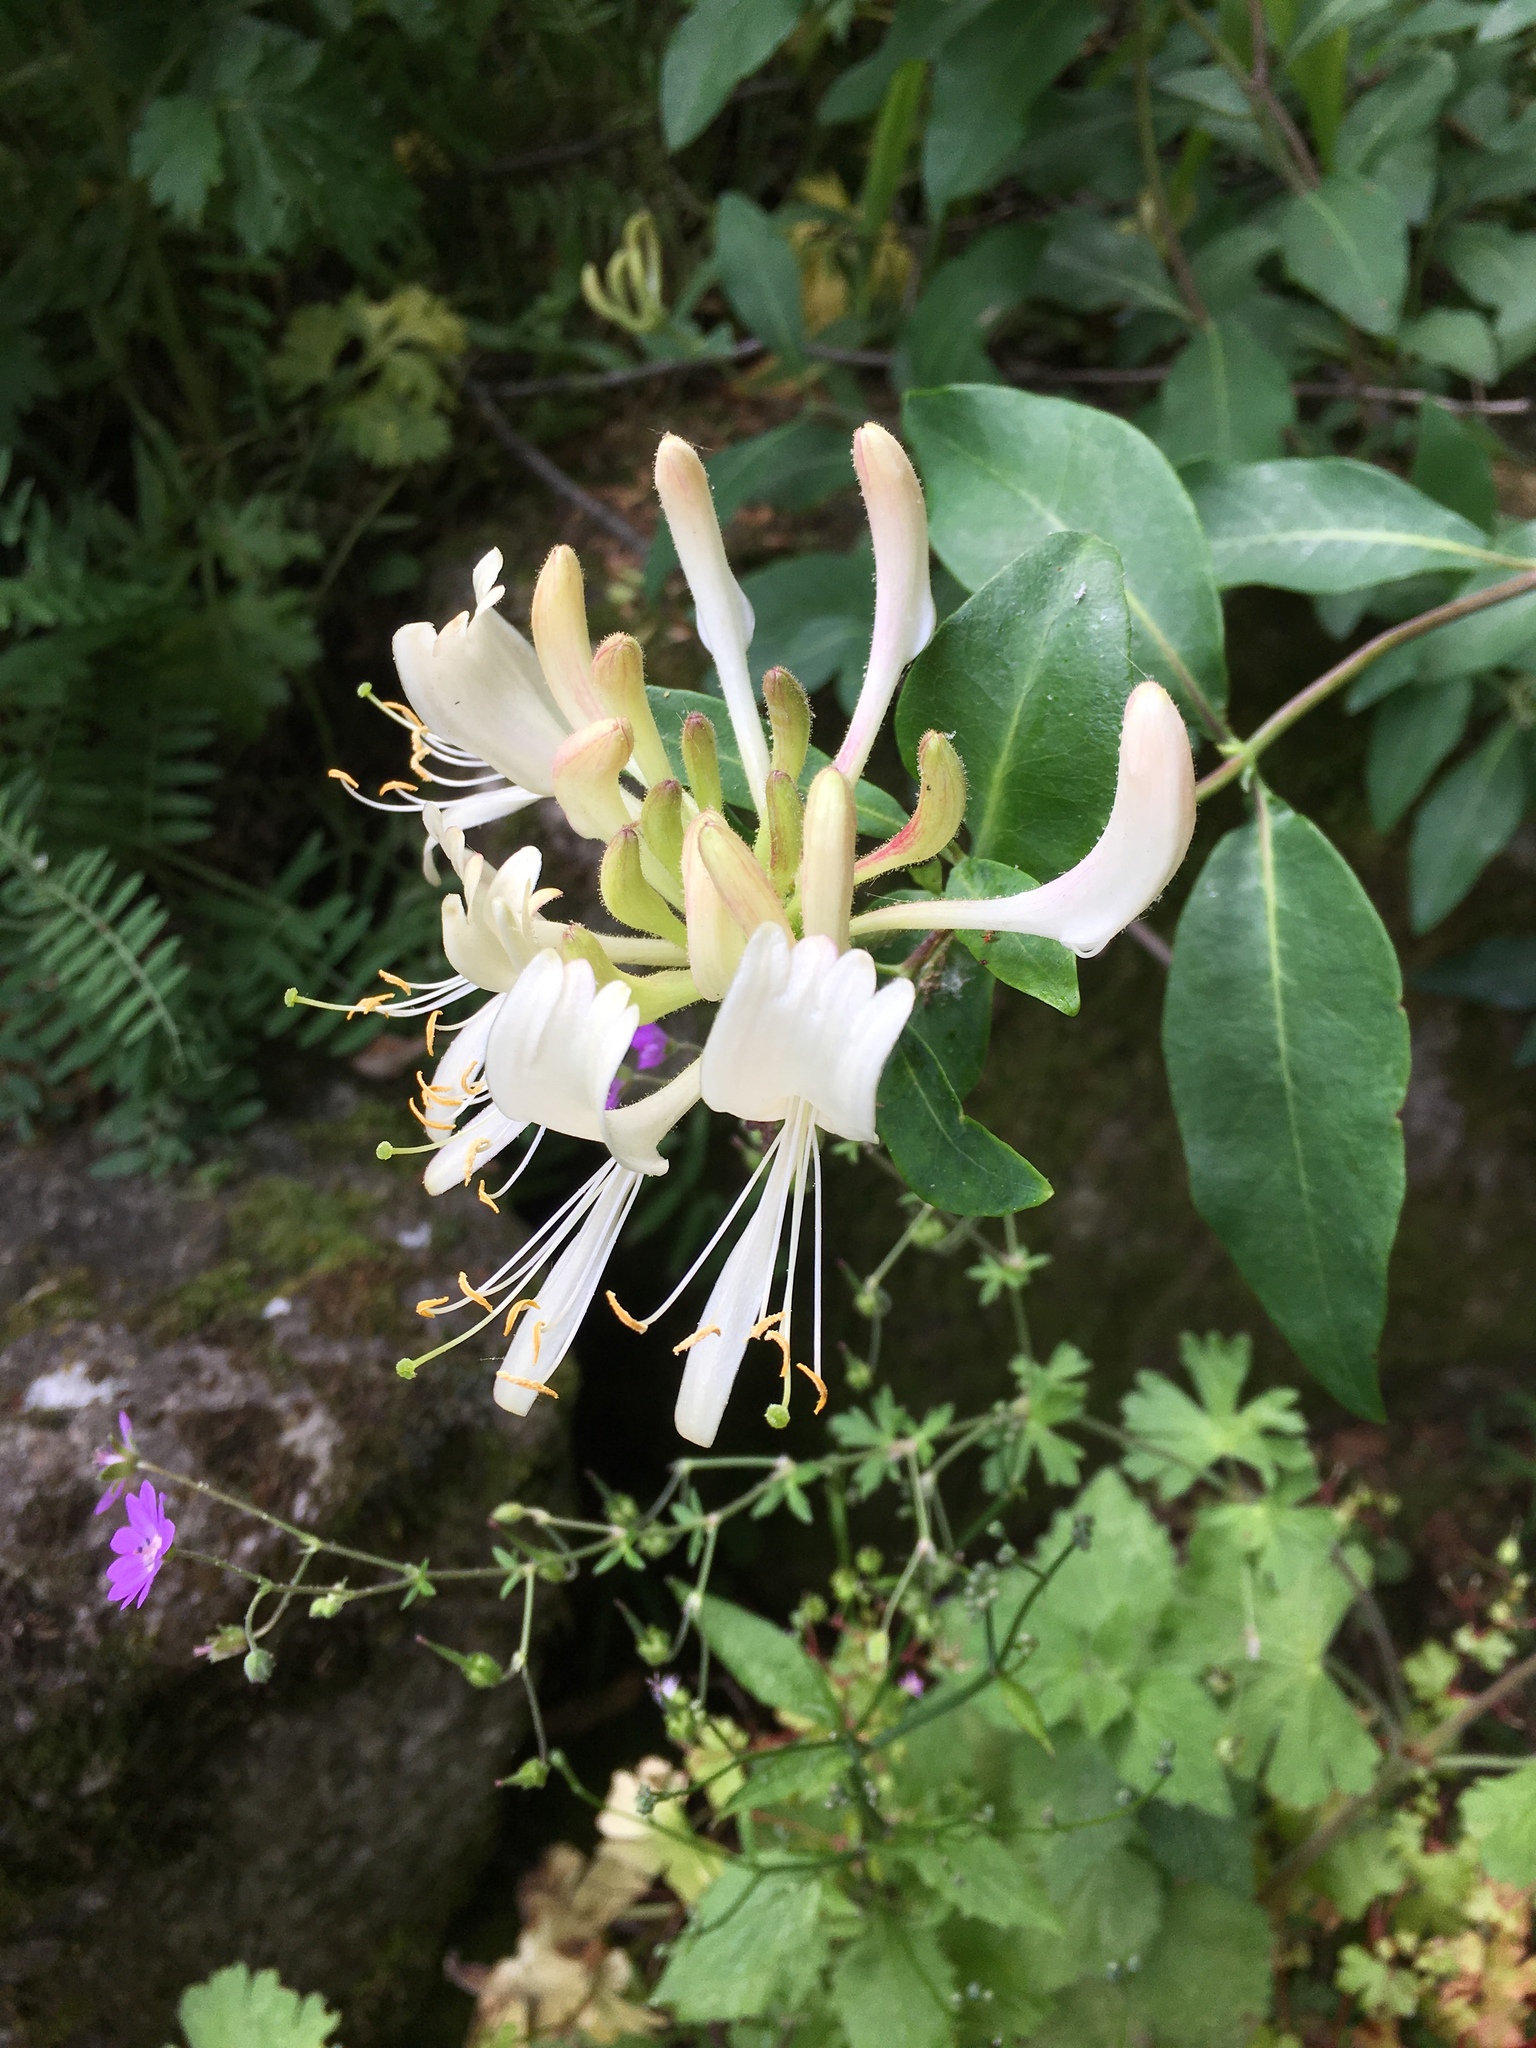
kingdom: Plantae
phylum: Tracheophyta
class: Magnoliopsida
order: Dipsacales
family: Caprifoliaceae
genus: Lonicera
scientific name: Lonicera periclymenum
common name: European honeysuckle
